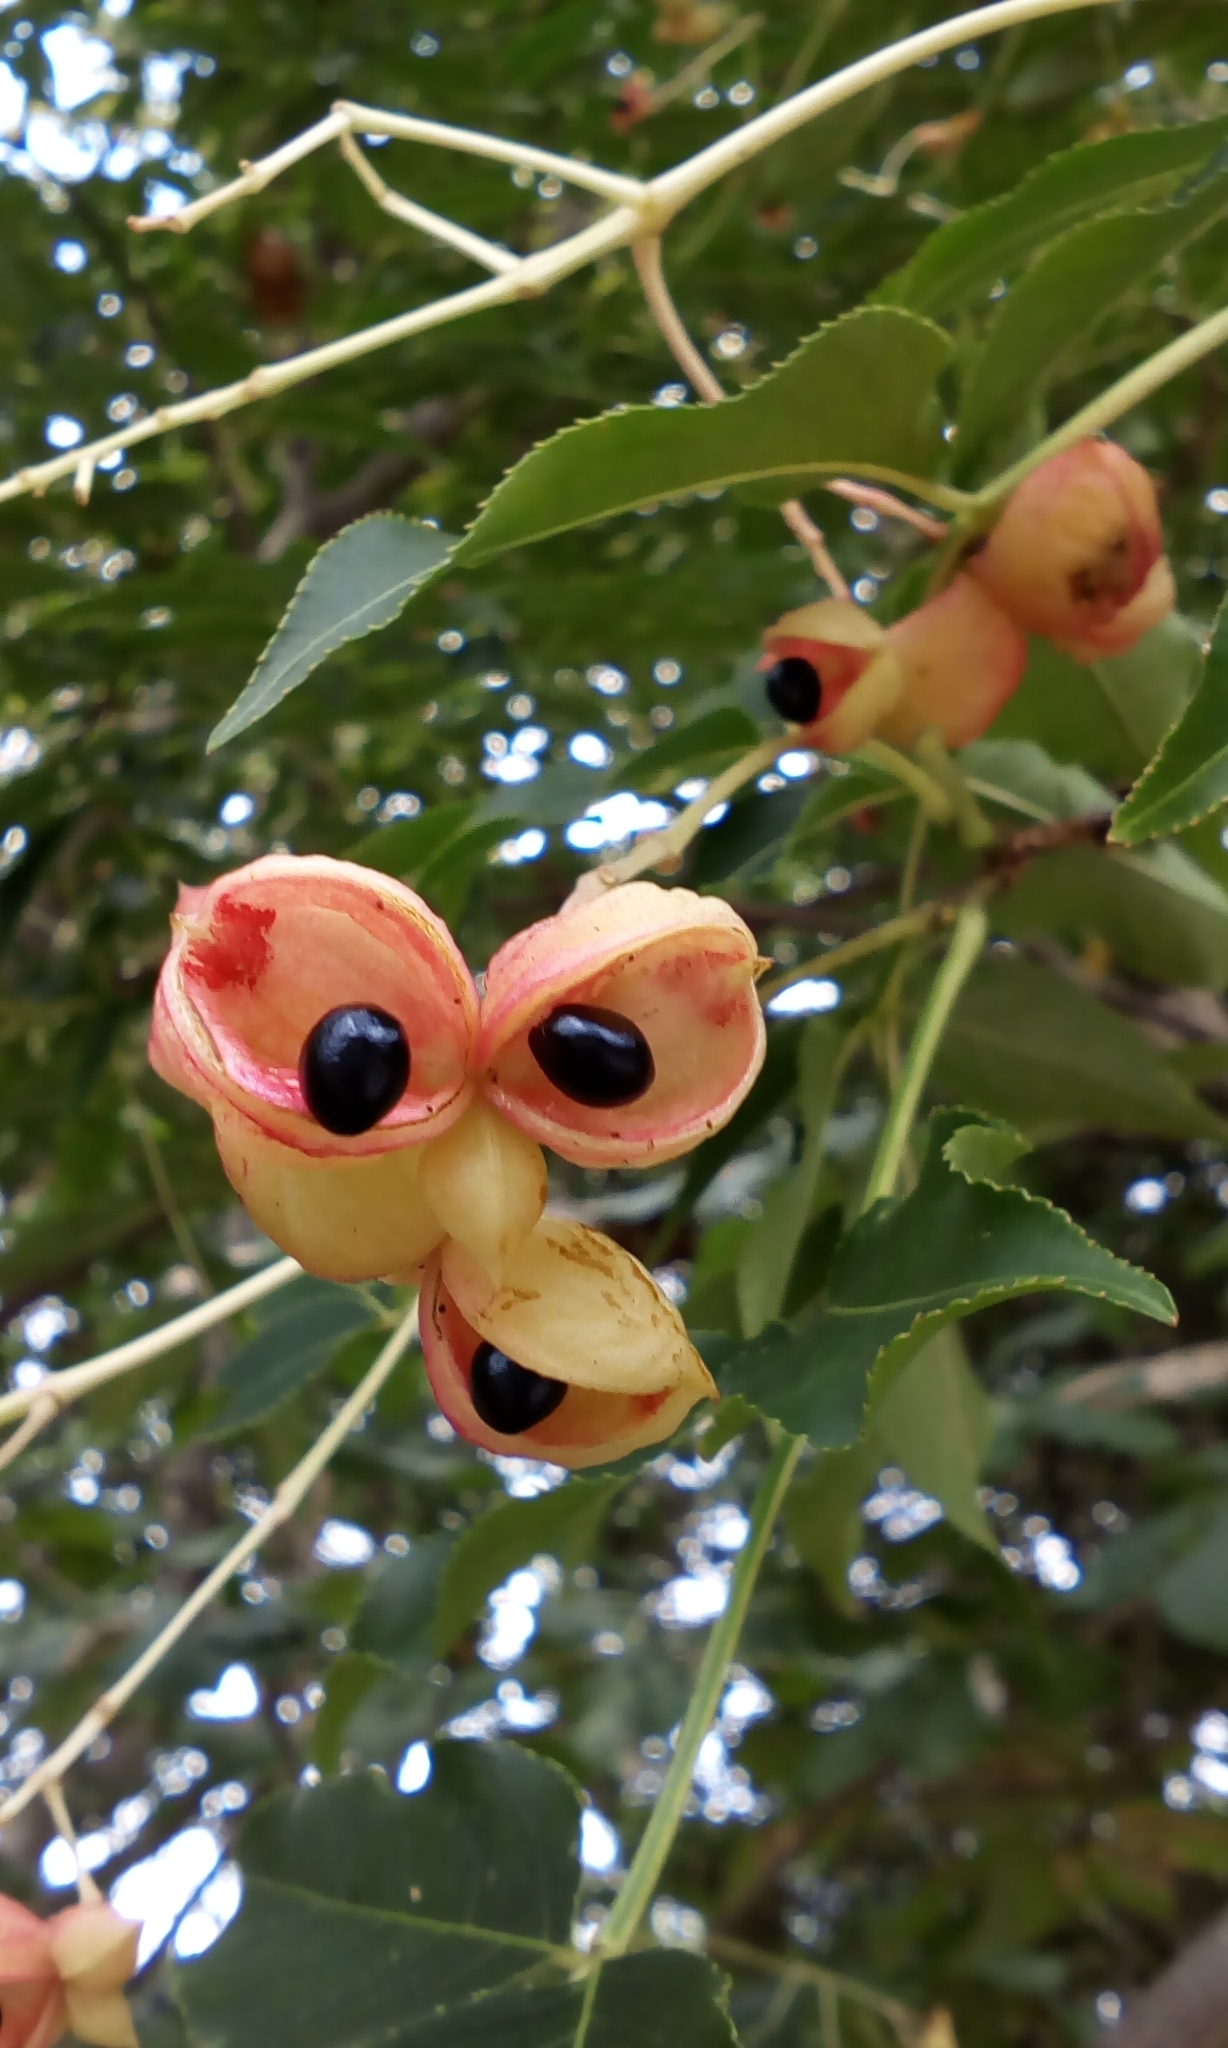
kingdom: Plantae
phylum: Tracheophyta
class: Magnoliopsida
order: Crossosomatales
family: Staphyleaceae
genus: Staphylea
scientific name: Staphylea japonica
